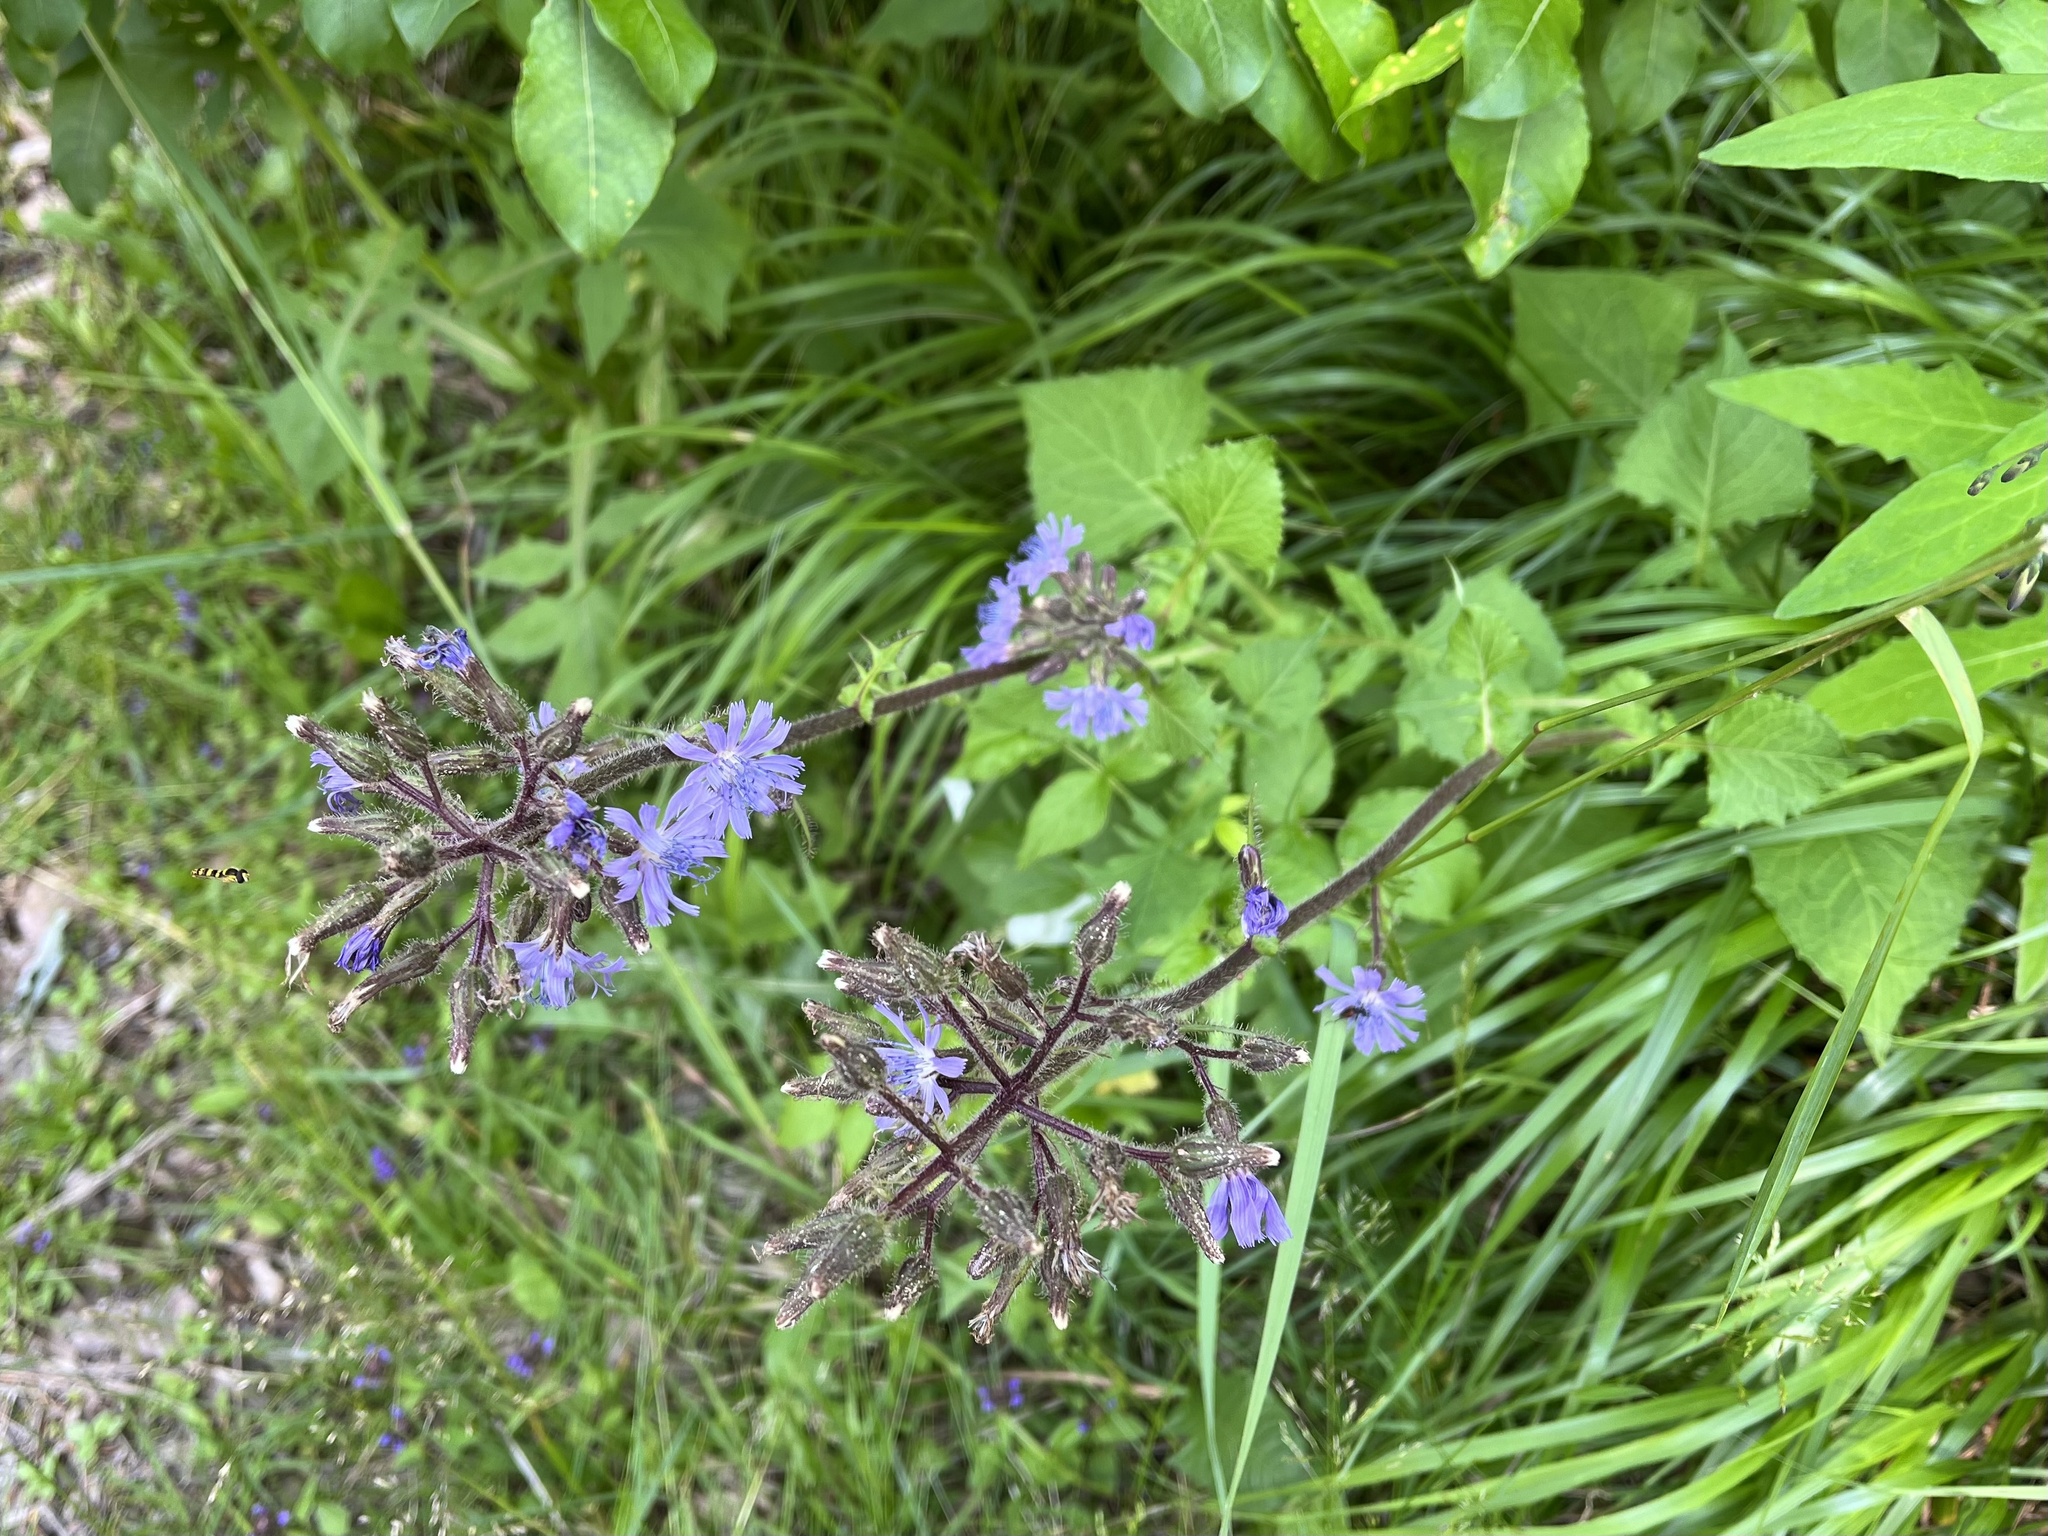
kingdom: Plantae
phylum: Tracheophyta
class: Magnoliopsida
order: Asterales
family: Asteraceae
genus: Cicerbita
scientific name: Cicerbita alpina
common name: Alpine blue-sow-thistle
